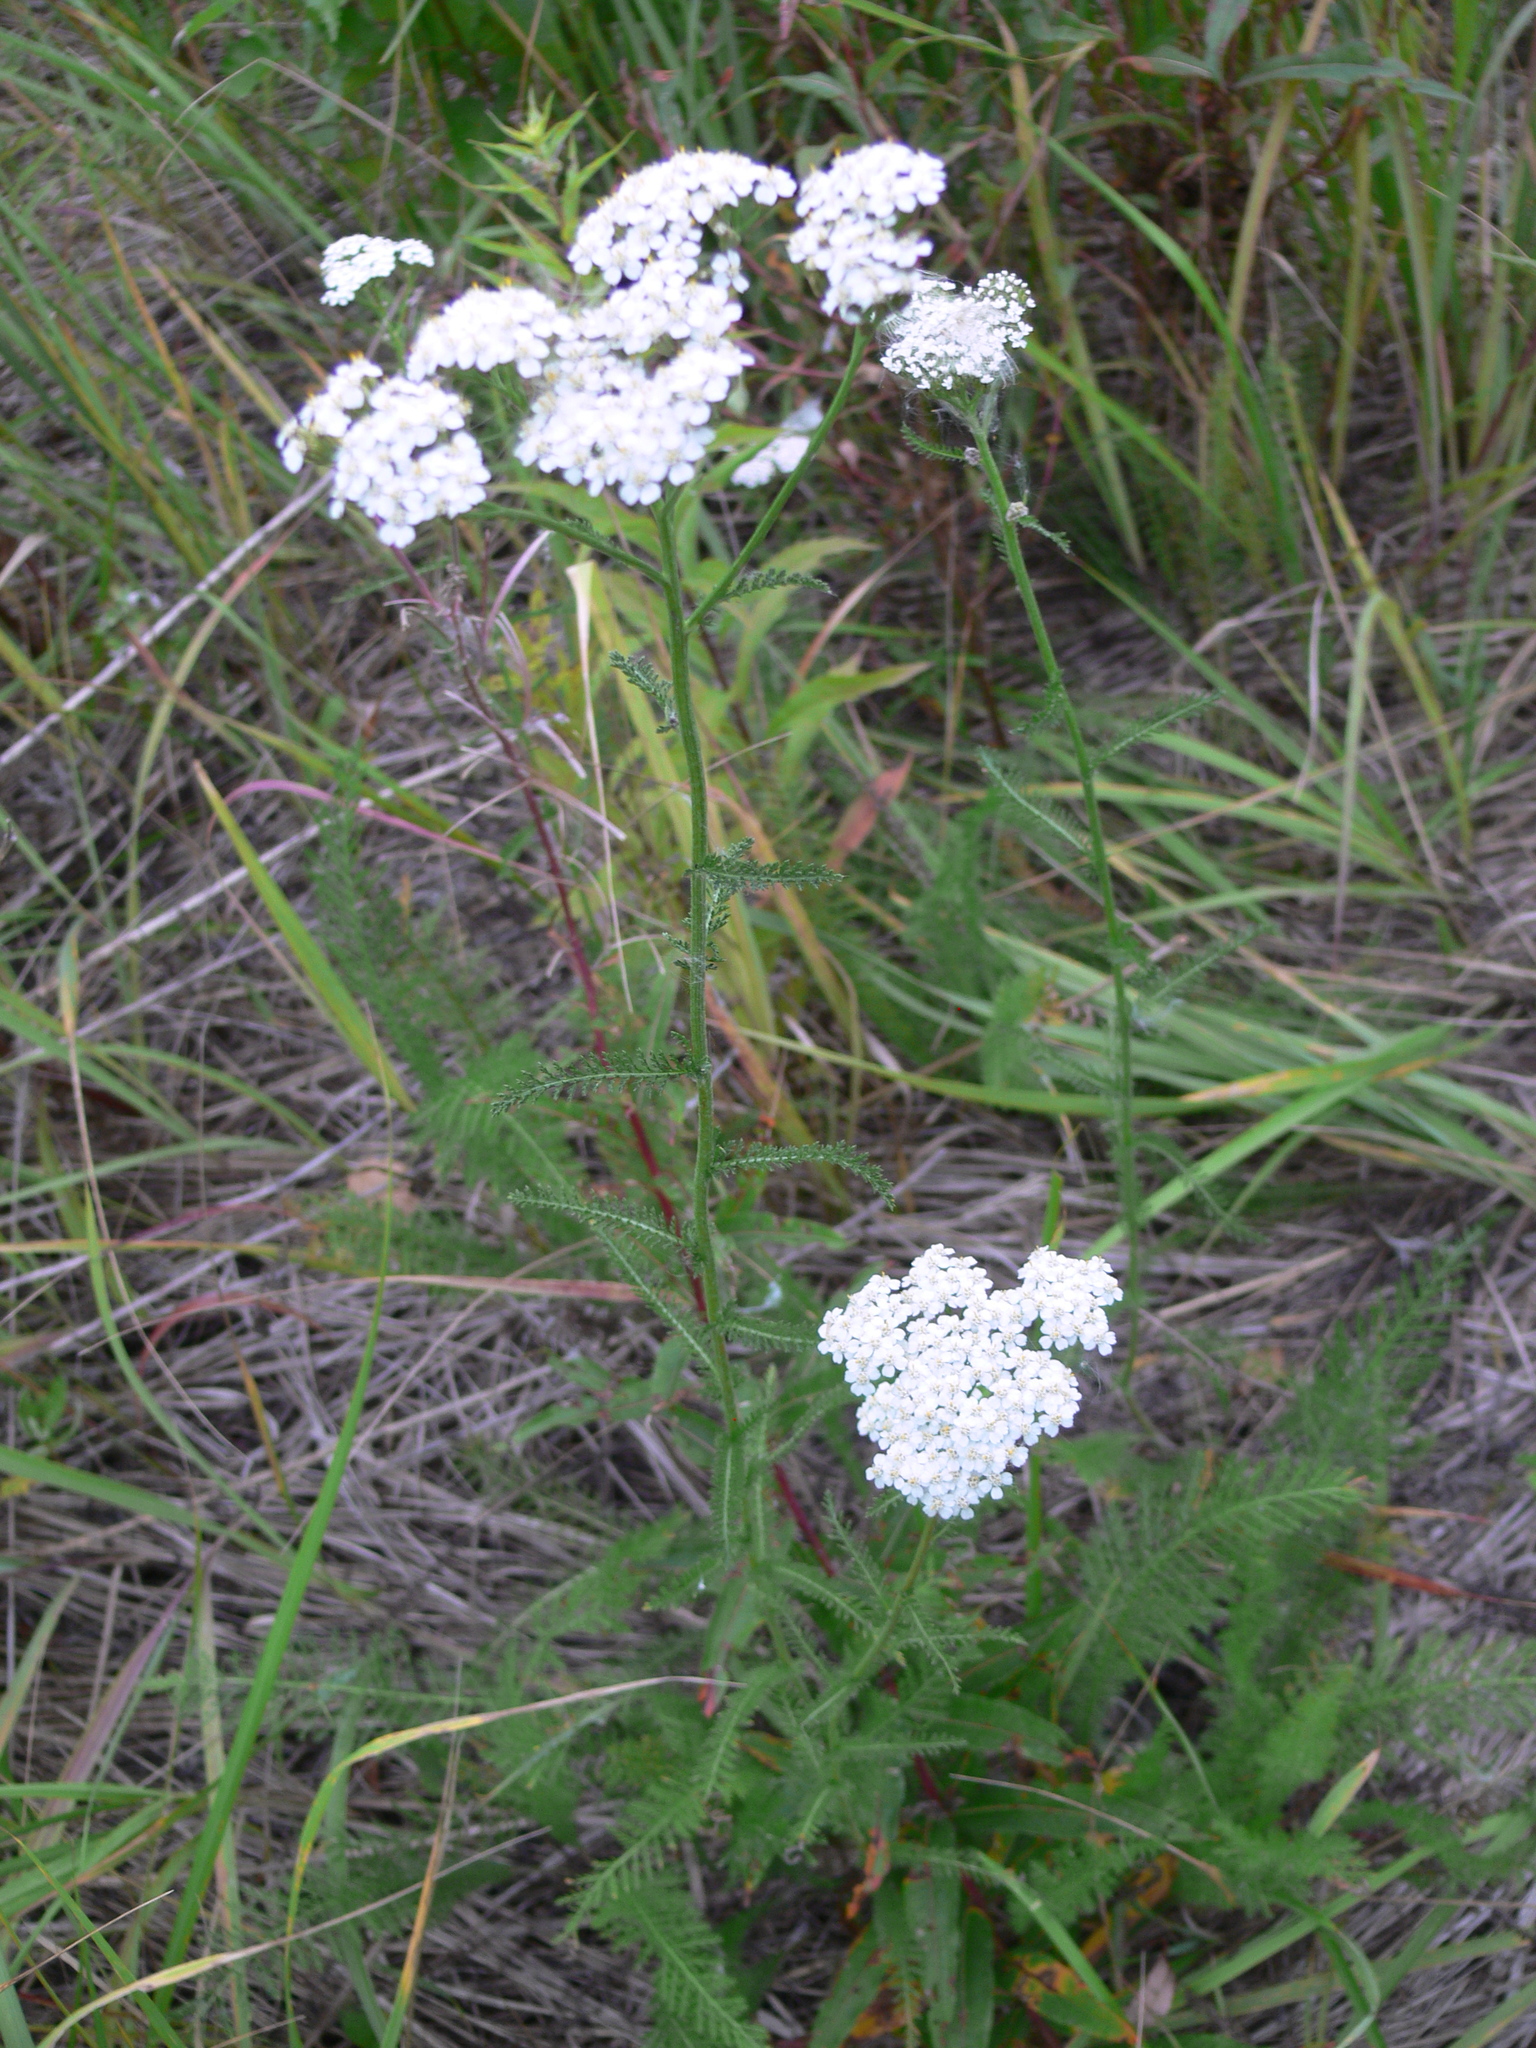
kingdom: Plantae
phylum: Tracheophyta
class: Magnoliopsida
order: Asterales
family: Asteraceae
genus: Achillea
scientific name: Achillea millefolium
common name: Yarrow
